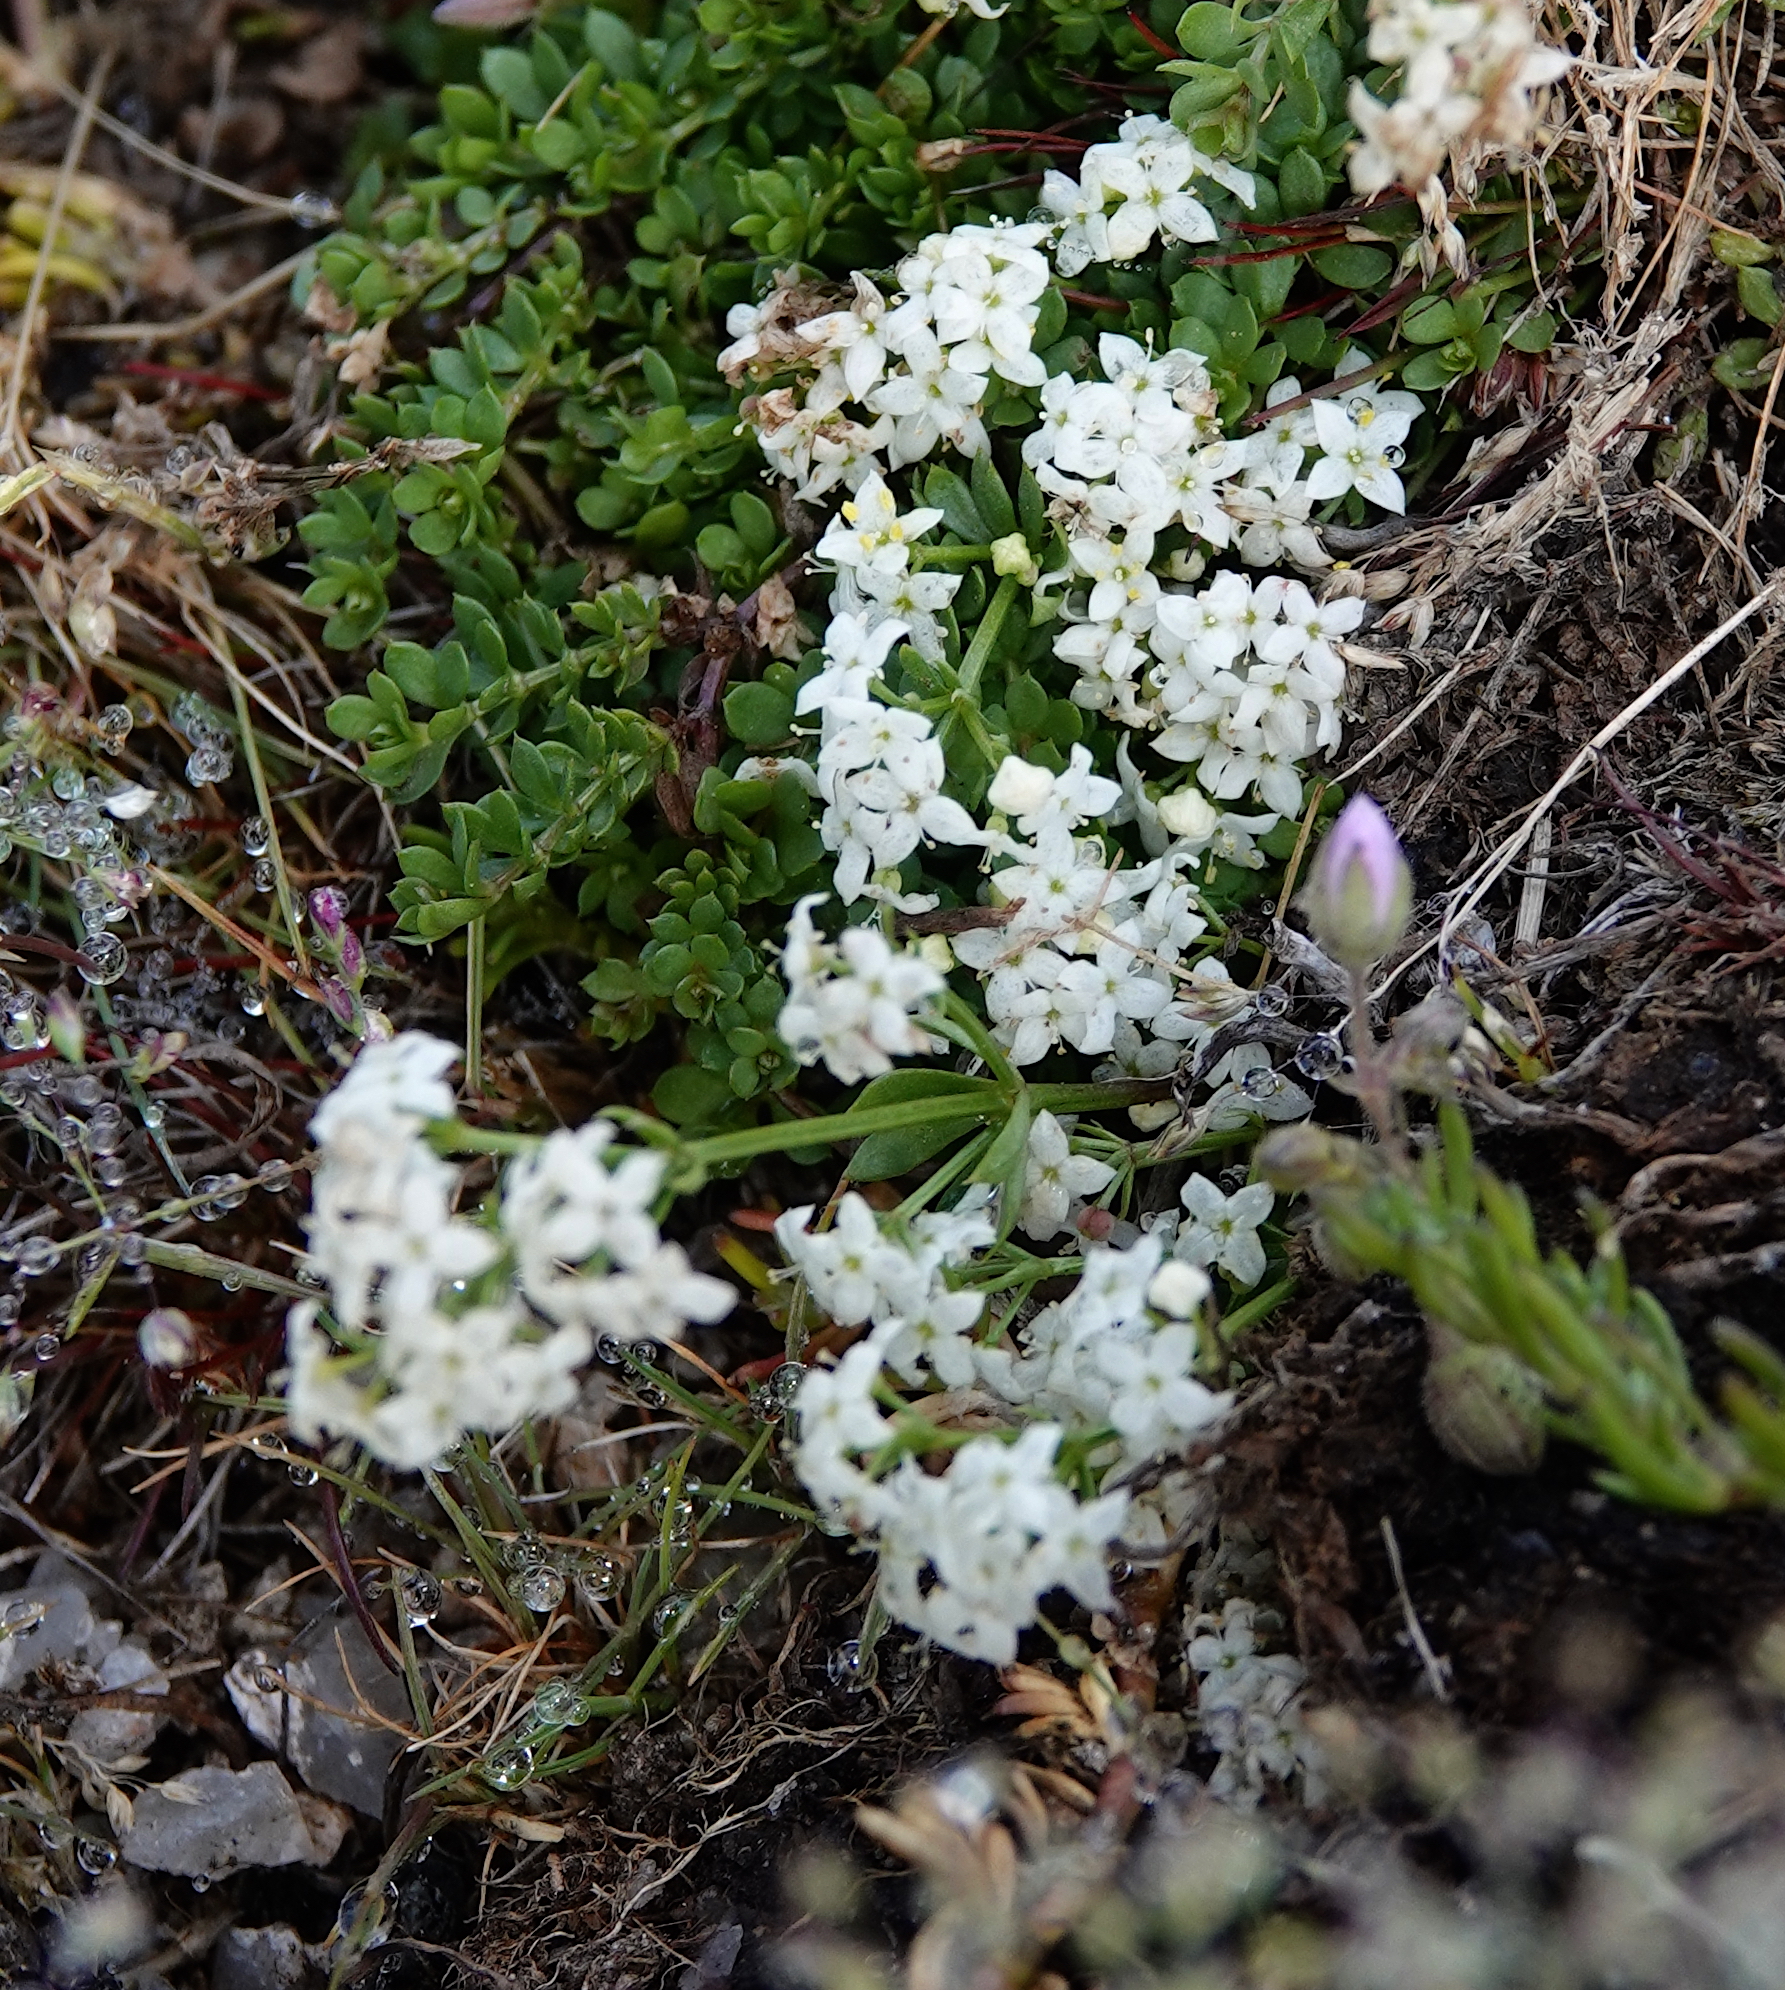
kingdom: Plantae
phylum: Tracheophyta
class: Magnoliopsida
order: Gentianales
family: Rubiaceae
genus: Galium
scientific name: Galium saxatile
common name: Heath bedstraw
